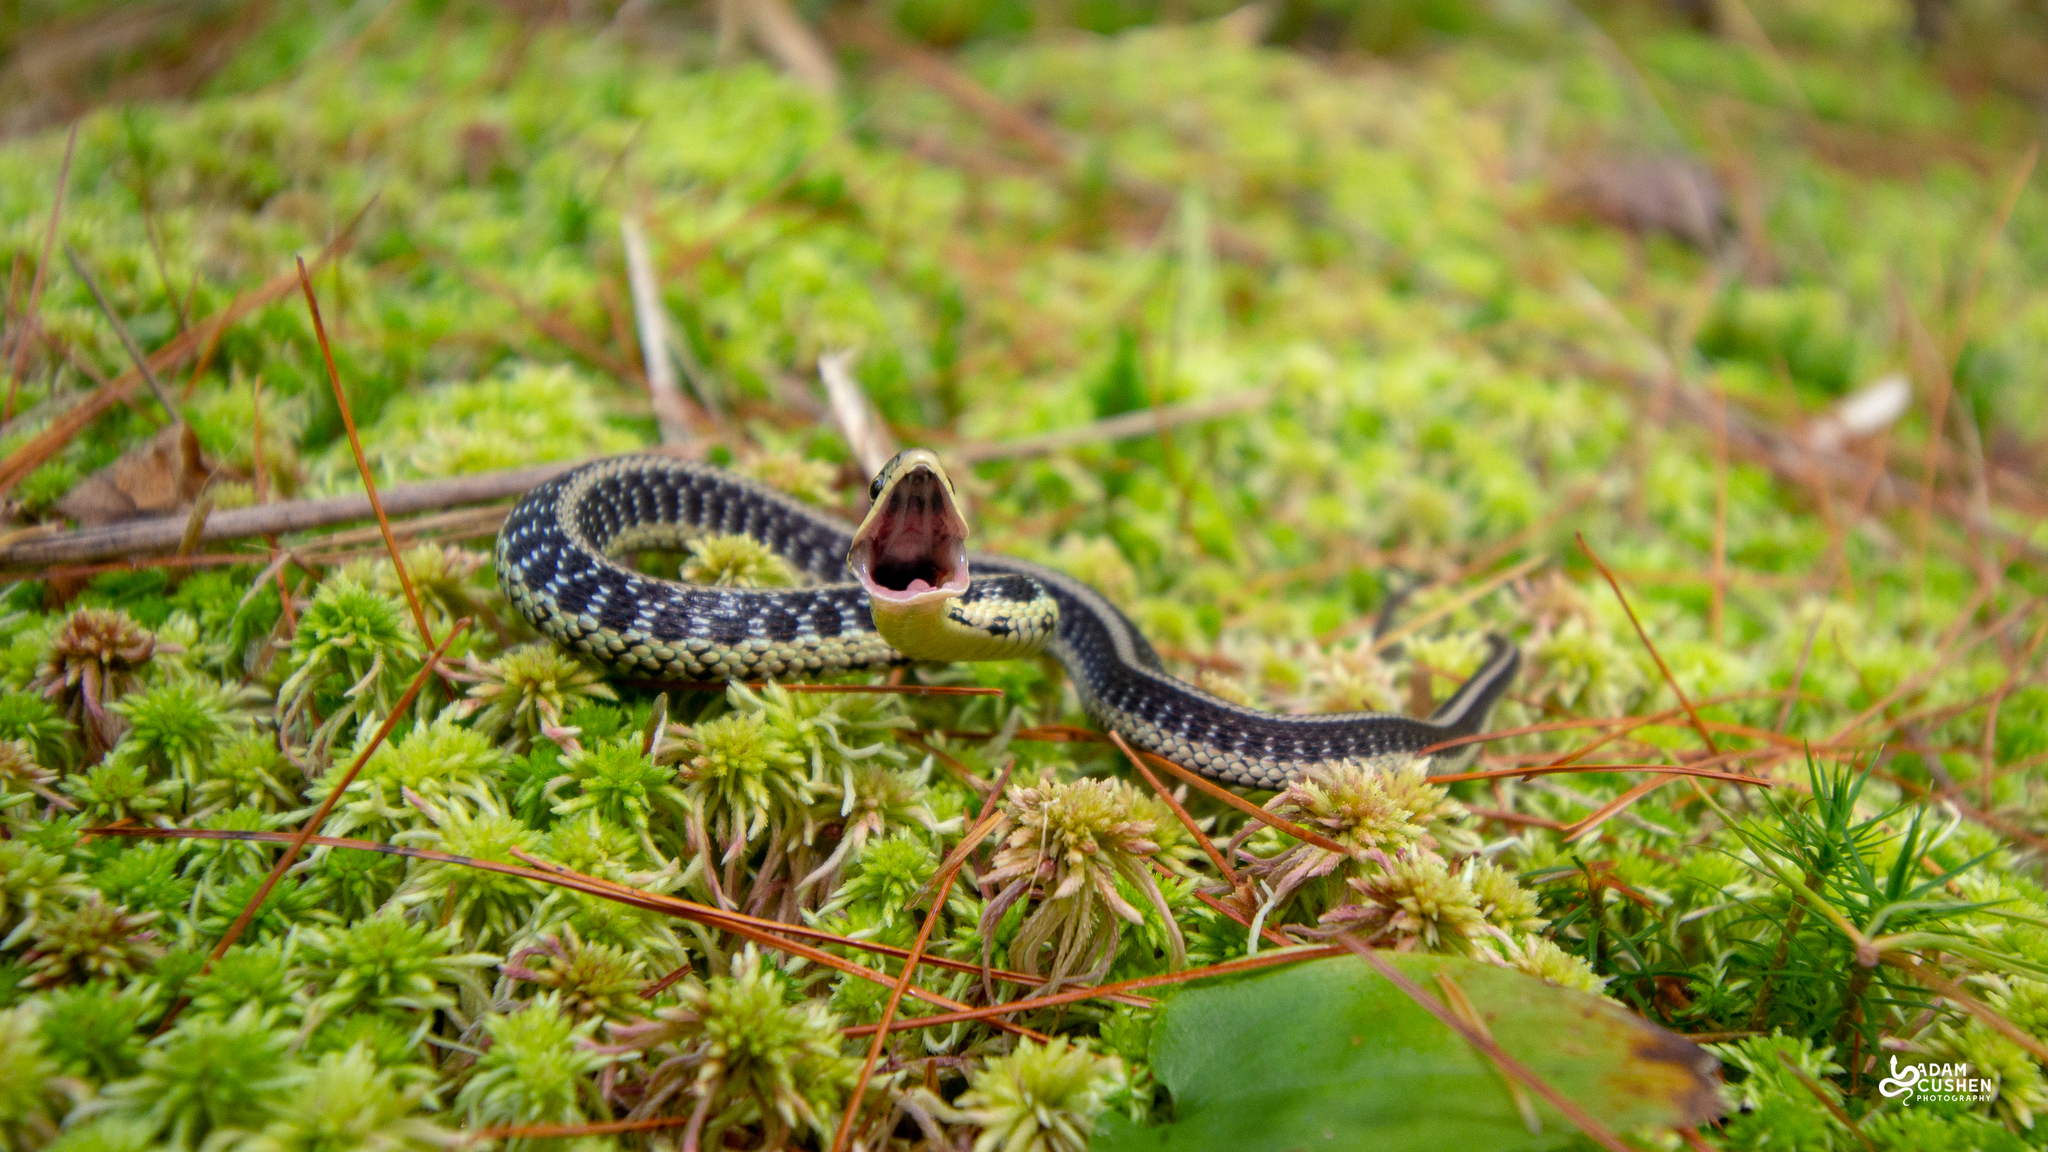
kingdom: Animalia
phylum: Chordata
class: Squamata
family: Colubridae
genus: Thamnophis
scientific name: Thamnophis sirtalis
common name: Common garter snake
